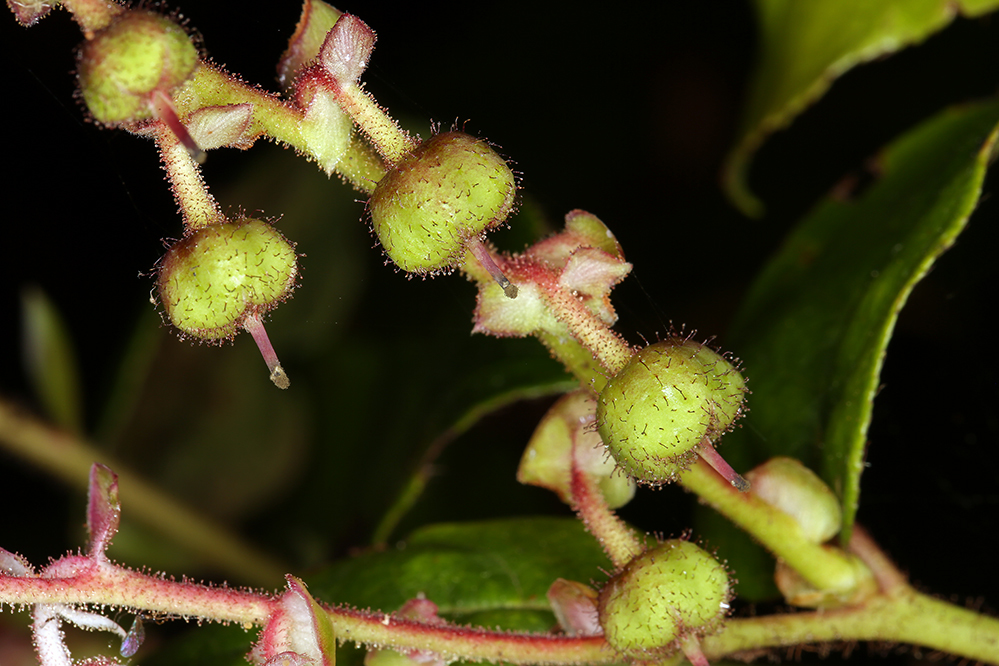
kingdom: Plantae
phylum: Tracheophyta
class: Magnoliopsida
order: Ericales
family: Ericaceae
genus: Gaultheria
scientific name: Gaultheria shallon
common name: Shallon
